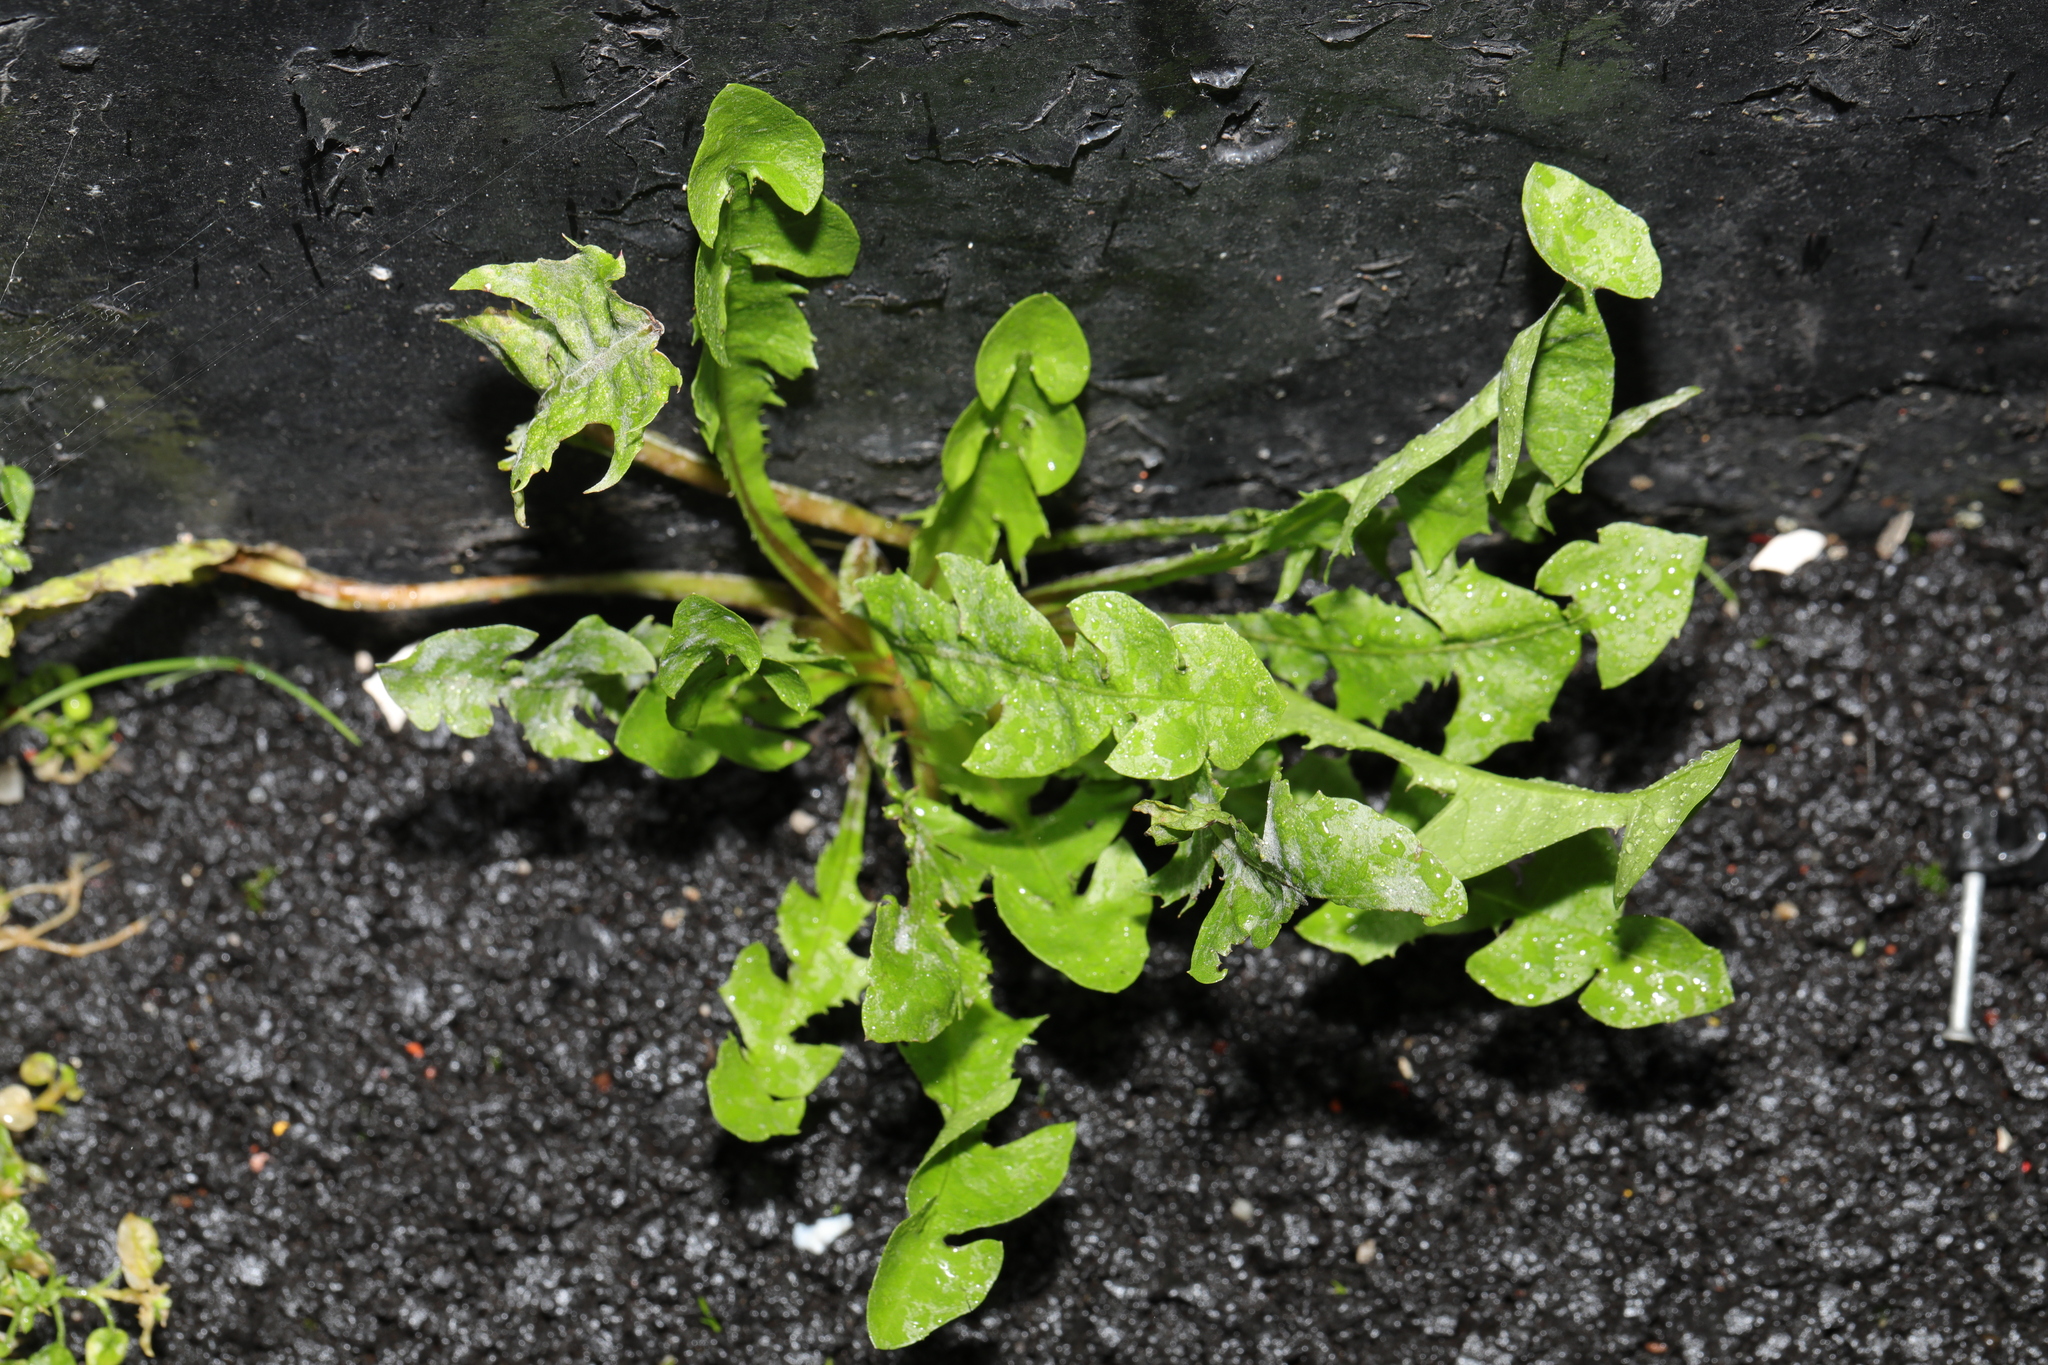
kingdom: Plantae
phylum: Tracheophyta
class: Magnoliopsida
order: Asterales
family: Asteraceae
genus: Taraxacum
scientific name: Taraxacum officinale
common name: Common dandelion
